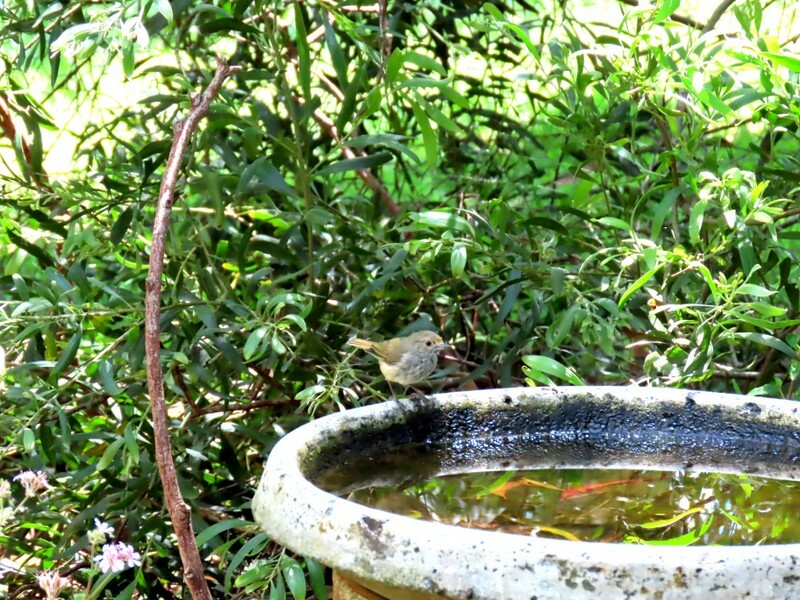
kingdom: Animalia
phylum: Chordata
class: Aves
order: Passeriformes
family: Acanthizidae
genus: Acanthiza
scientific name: Acanthiza pusilla
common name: Brown thornbill
